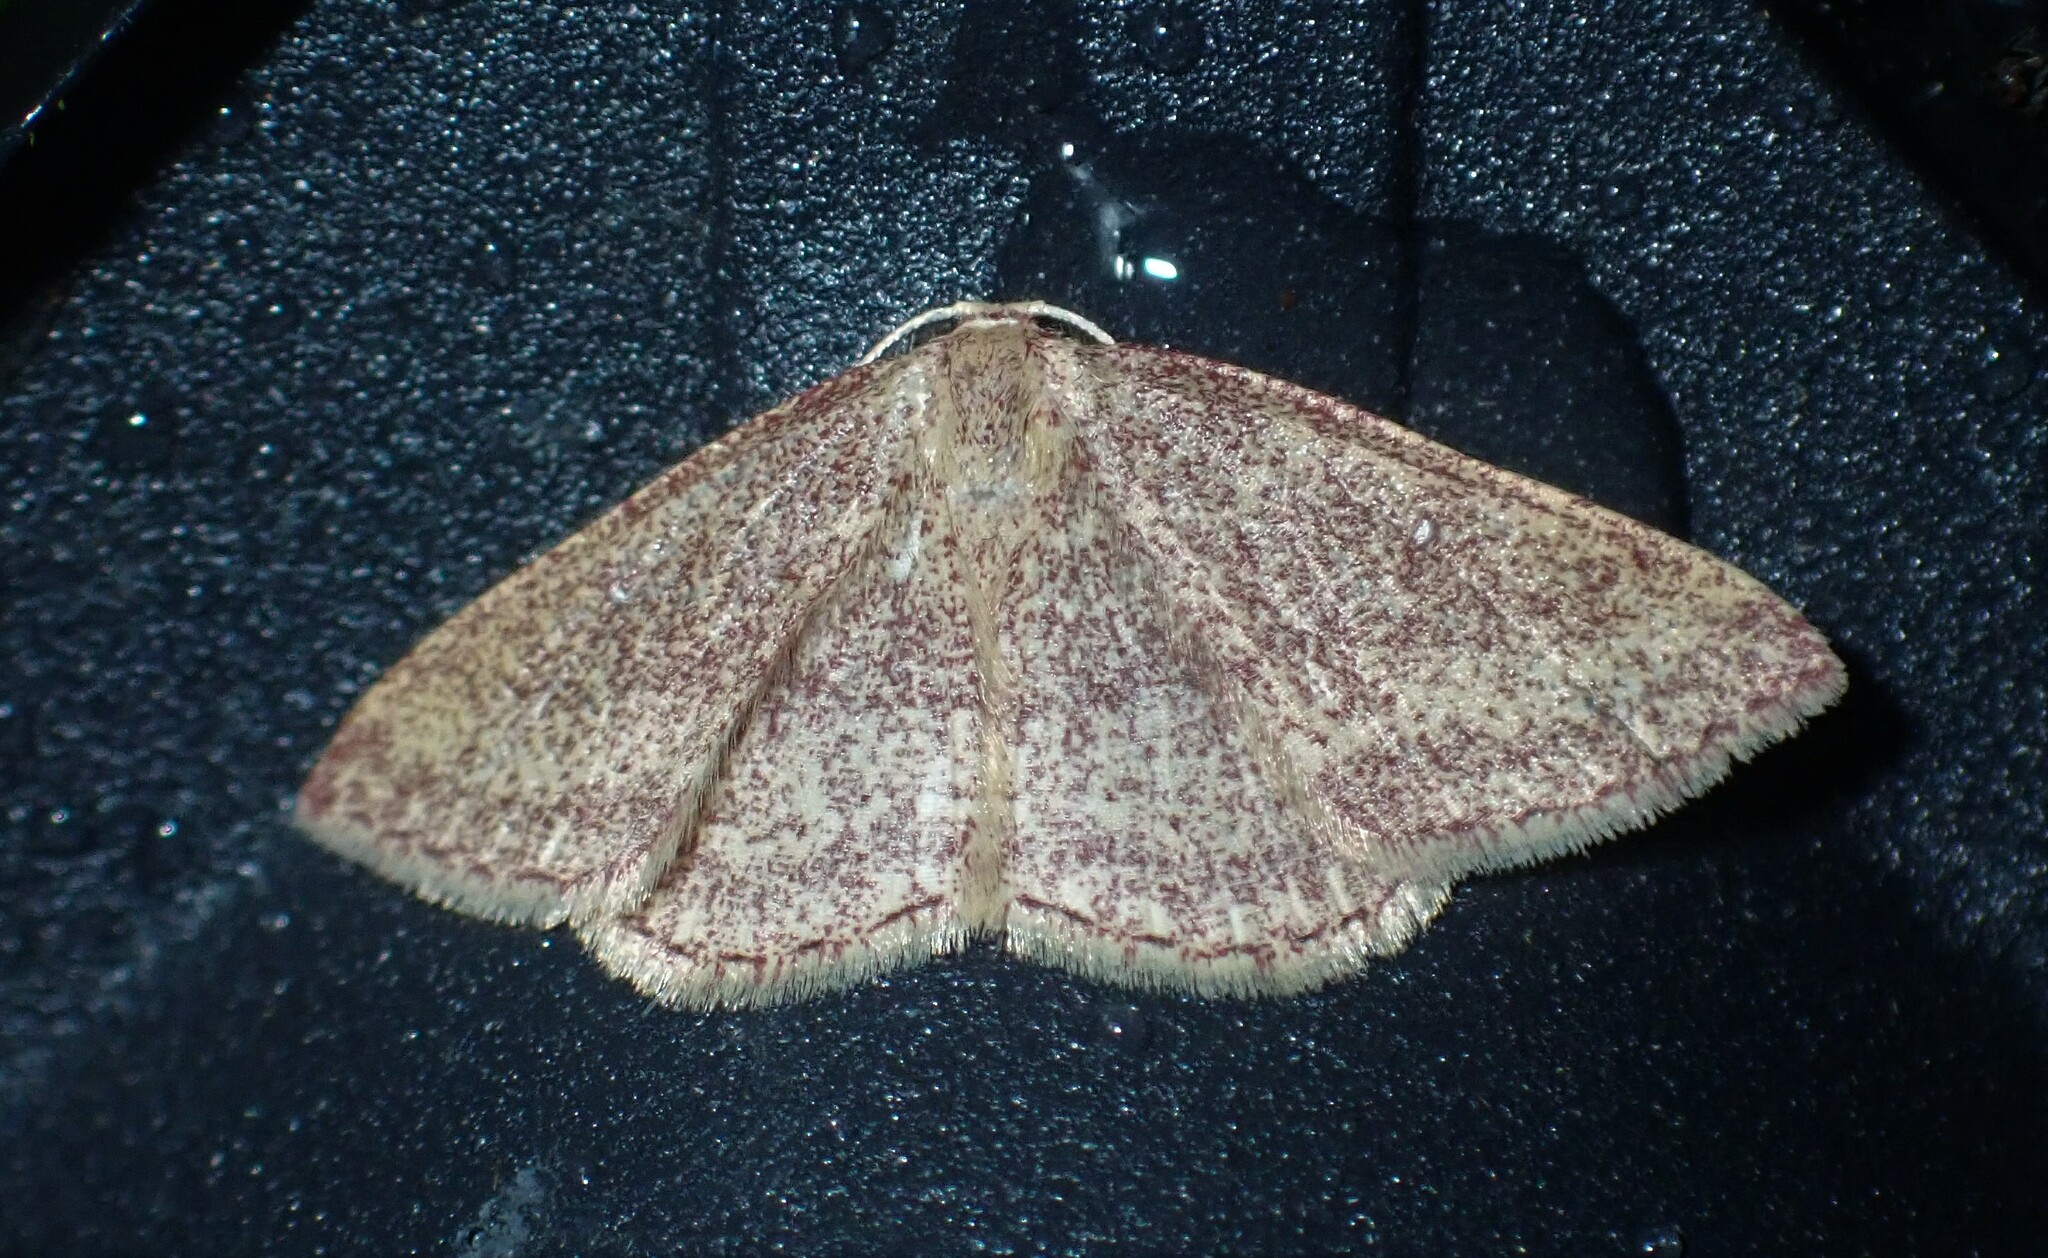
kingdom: Animalia
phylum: Arthropoda
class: Insecta
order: Lepidoptera
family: Geometridae
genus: Cyclophora
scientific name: Cyclophora azorensis
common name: Geometer moth
